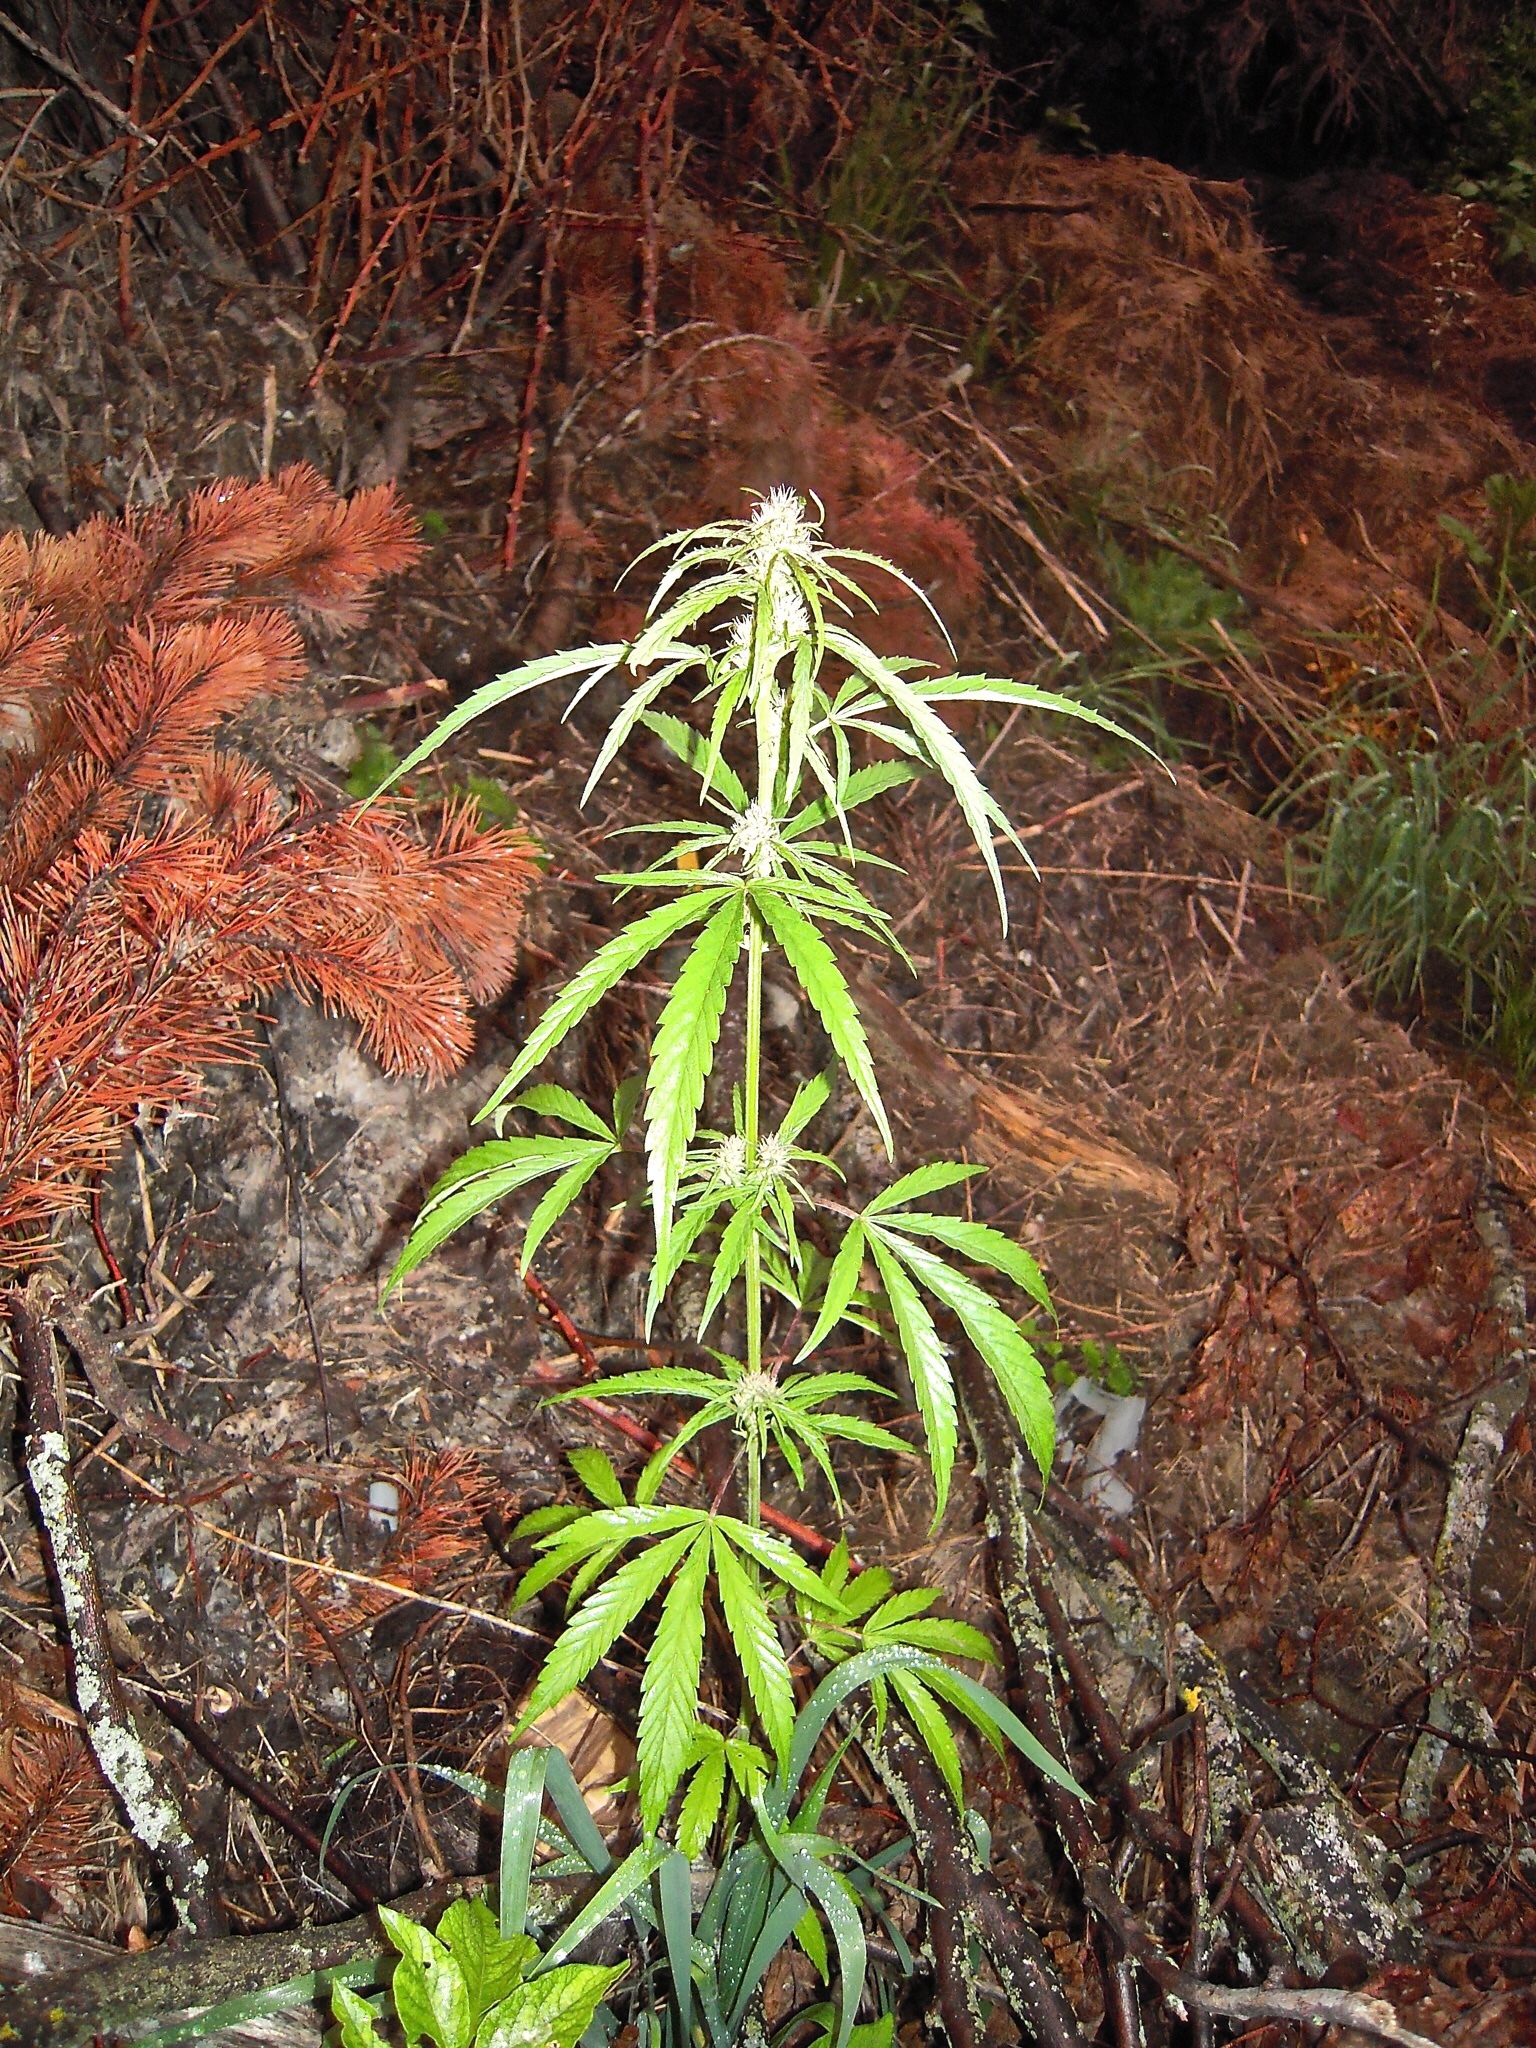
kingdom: Plantae
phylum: Tracheophyta
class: Magnoliopsida
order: Rosales
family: Cannabaceae
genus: Cannabis
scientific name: Cannabis sativa
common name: Hemp
